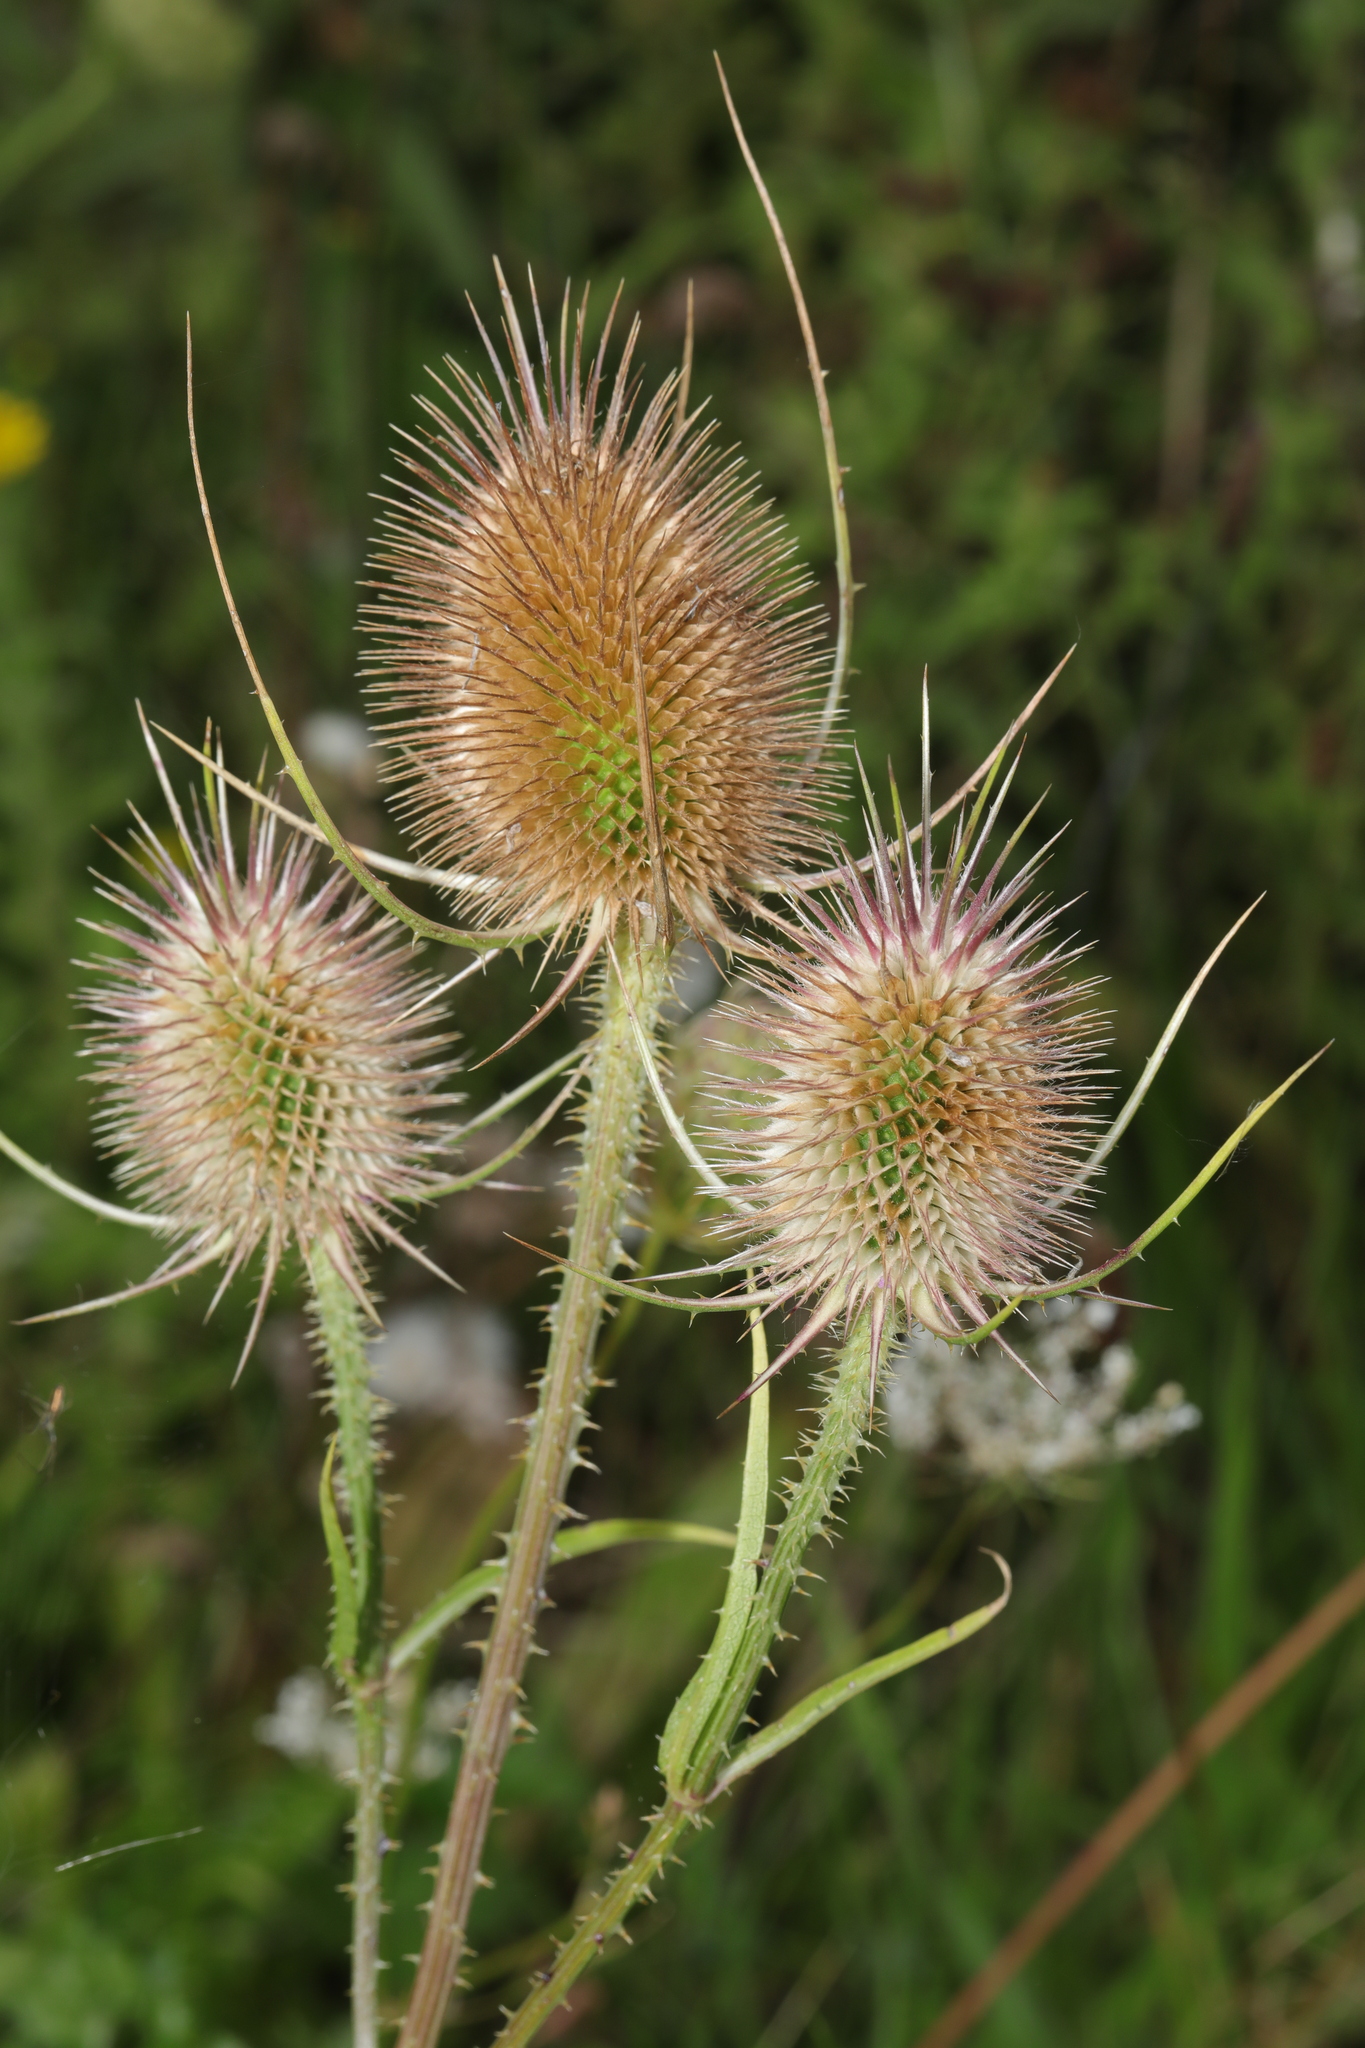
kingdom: Plantae
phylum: Tracheophyta
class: Magnoliopsida
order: Dipsacales
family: Caprifoliaceae
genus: Dipsacus
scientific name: Dipsacus fullonum
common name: Teasel
